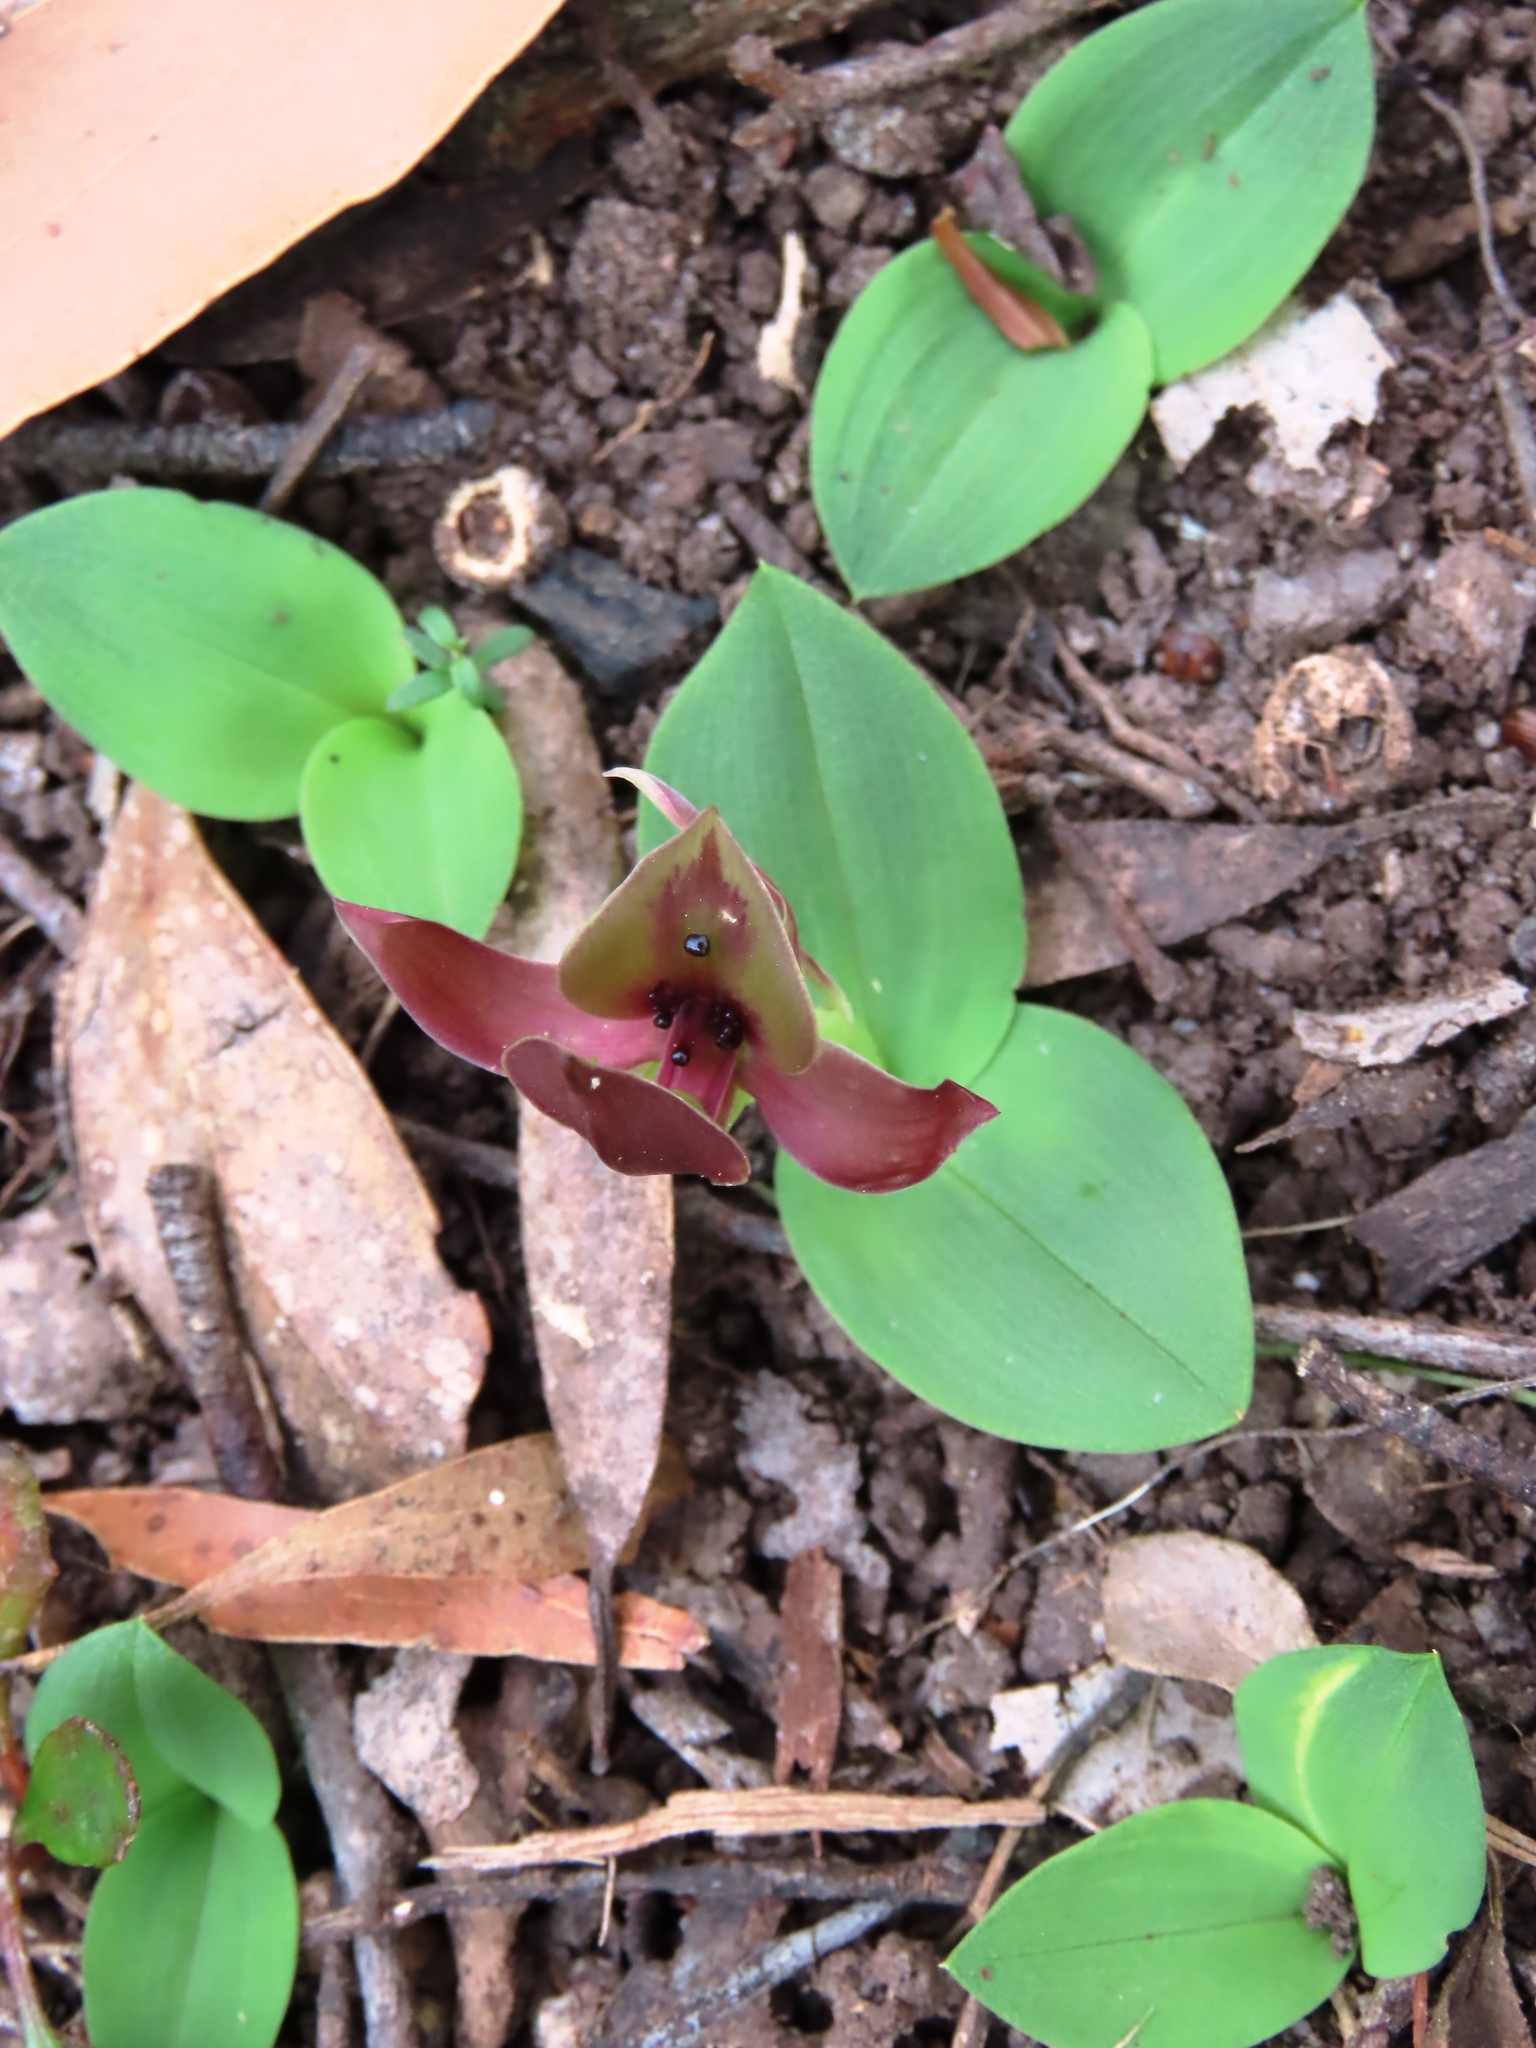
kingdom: Plantae
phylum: Tracheophyta
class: Liliopsida
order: Asparagales
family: Orchidaceae
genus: Chiloglottis
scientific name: Chiloglottis valida
